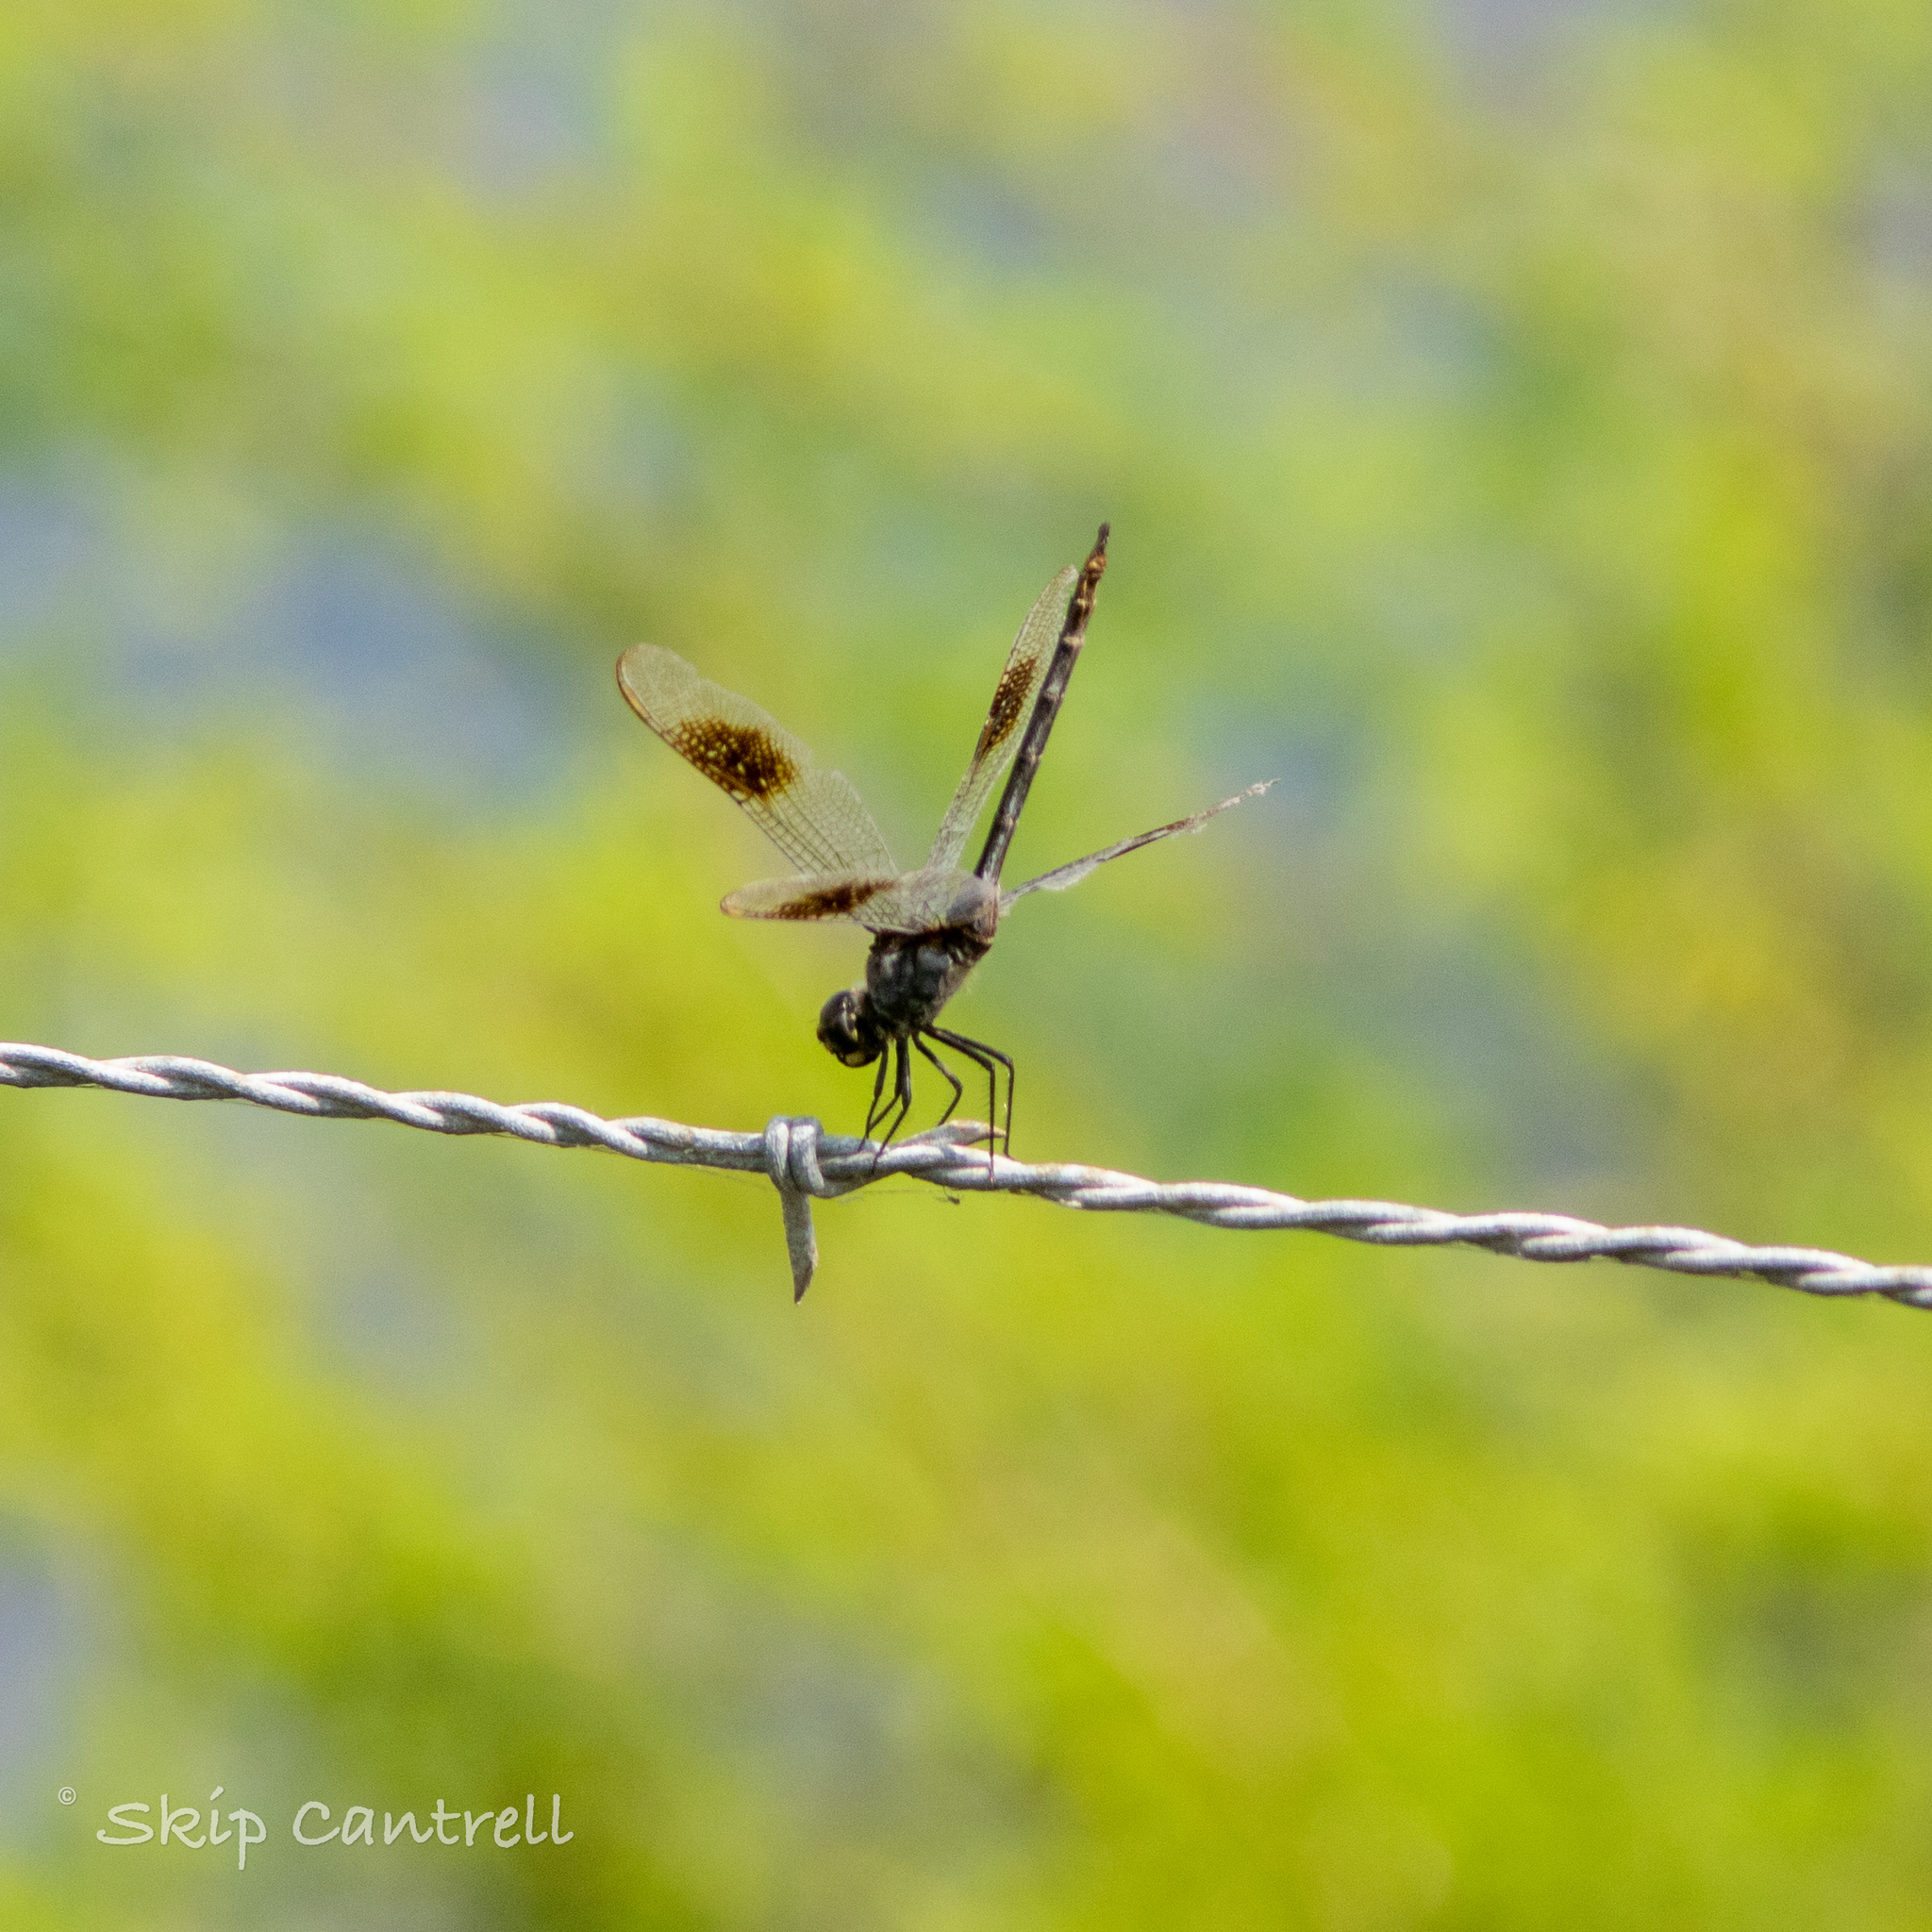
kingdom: Animalia
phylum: Arthropoda
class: Insecta
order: Odonata
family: Libellulidae
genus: Brachymesia
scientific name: Brachymesia gravida
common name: Four-spotted pennant
